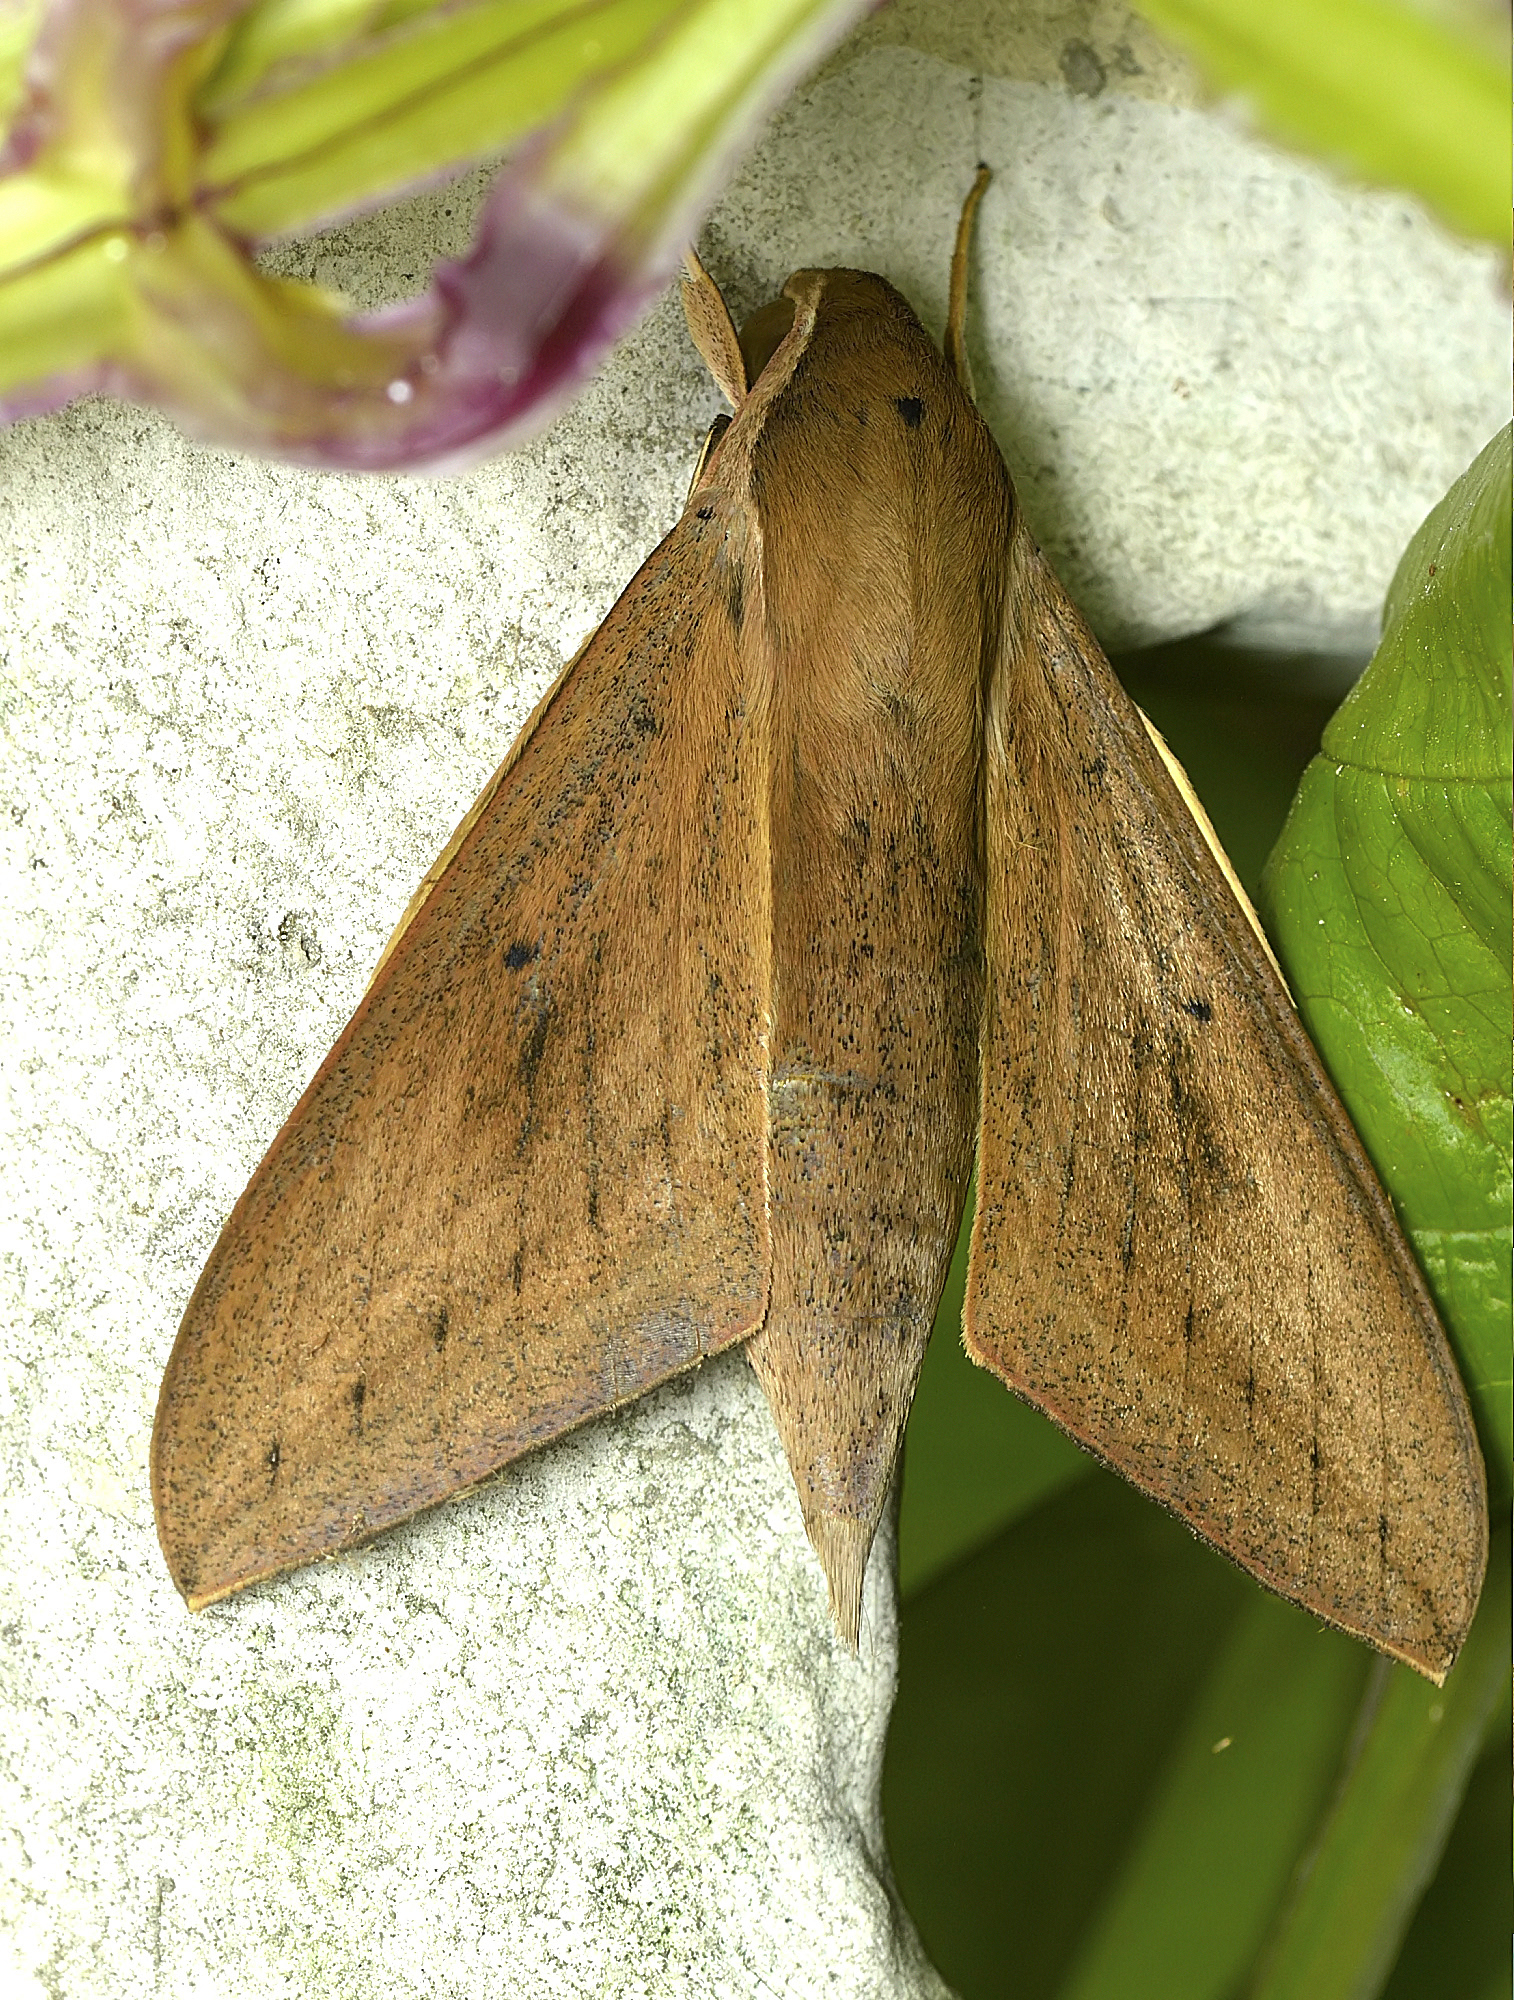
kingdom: Animalia
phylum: Arthropoda
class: Insecta
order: Lepidoptera
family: Sphingidae
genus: Theretra
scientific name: Theretra rhesus
